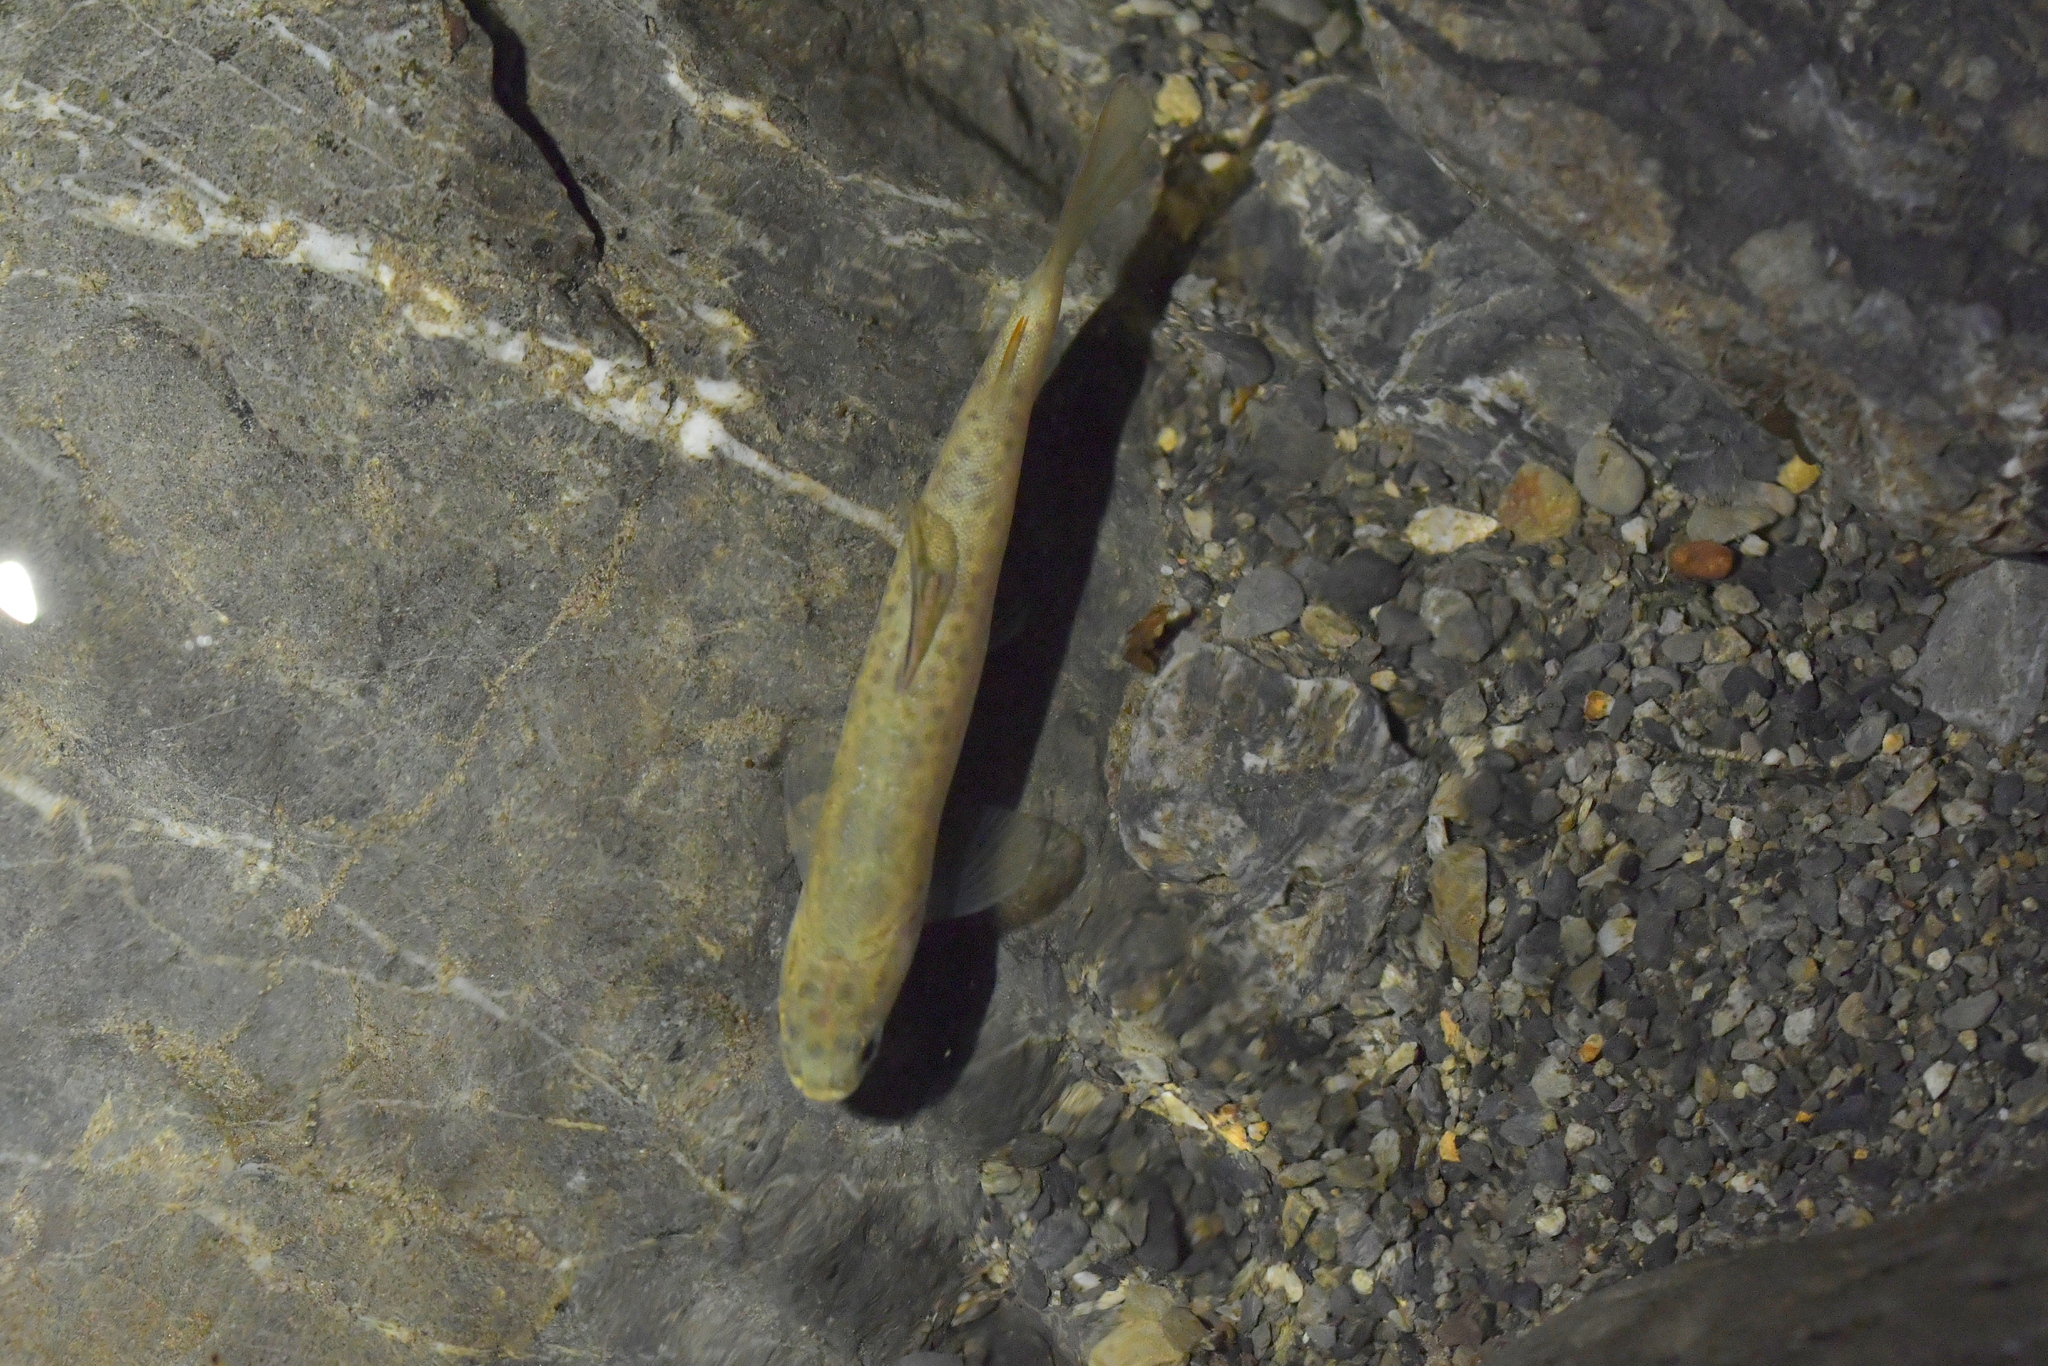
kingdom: Animalia
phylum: Chordata
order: Salmoniformes
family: Salmonidae
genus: Salmo
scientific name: Salmo trutta
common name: Brown trout
